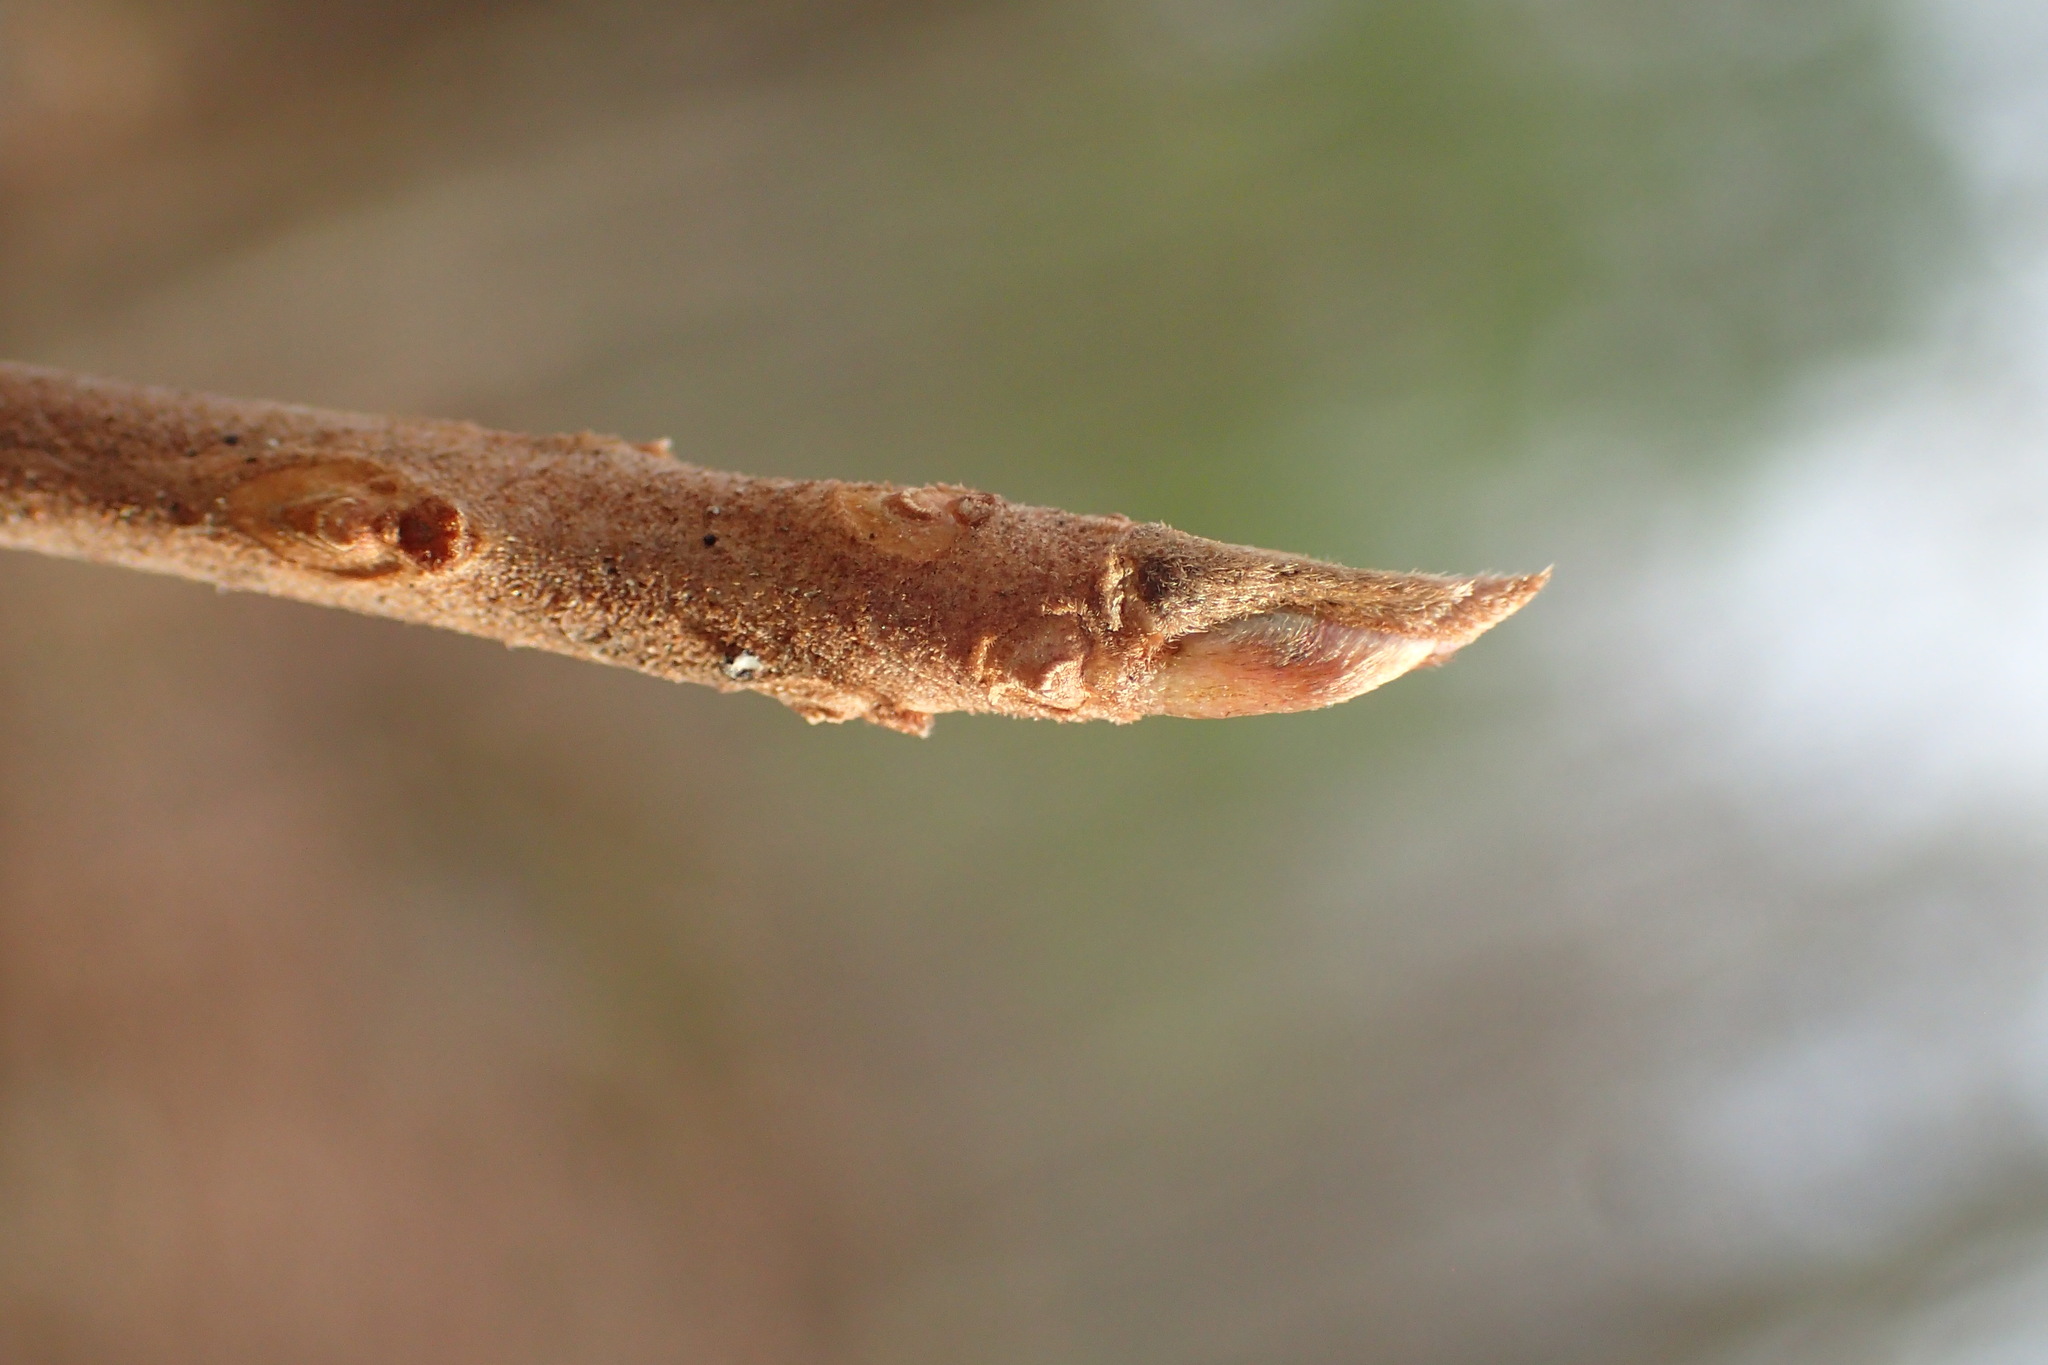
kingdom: Plantae
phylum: Tracheophyta
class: Magnoliopsida
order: Ericales
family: Clethraceae
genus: Clethra
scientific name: Clethra alnifolia
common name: Sweet pepperbush
